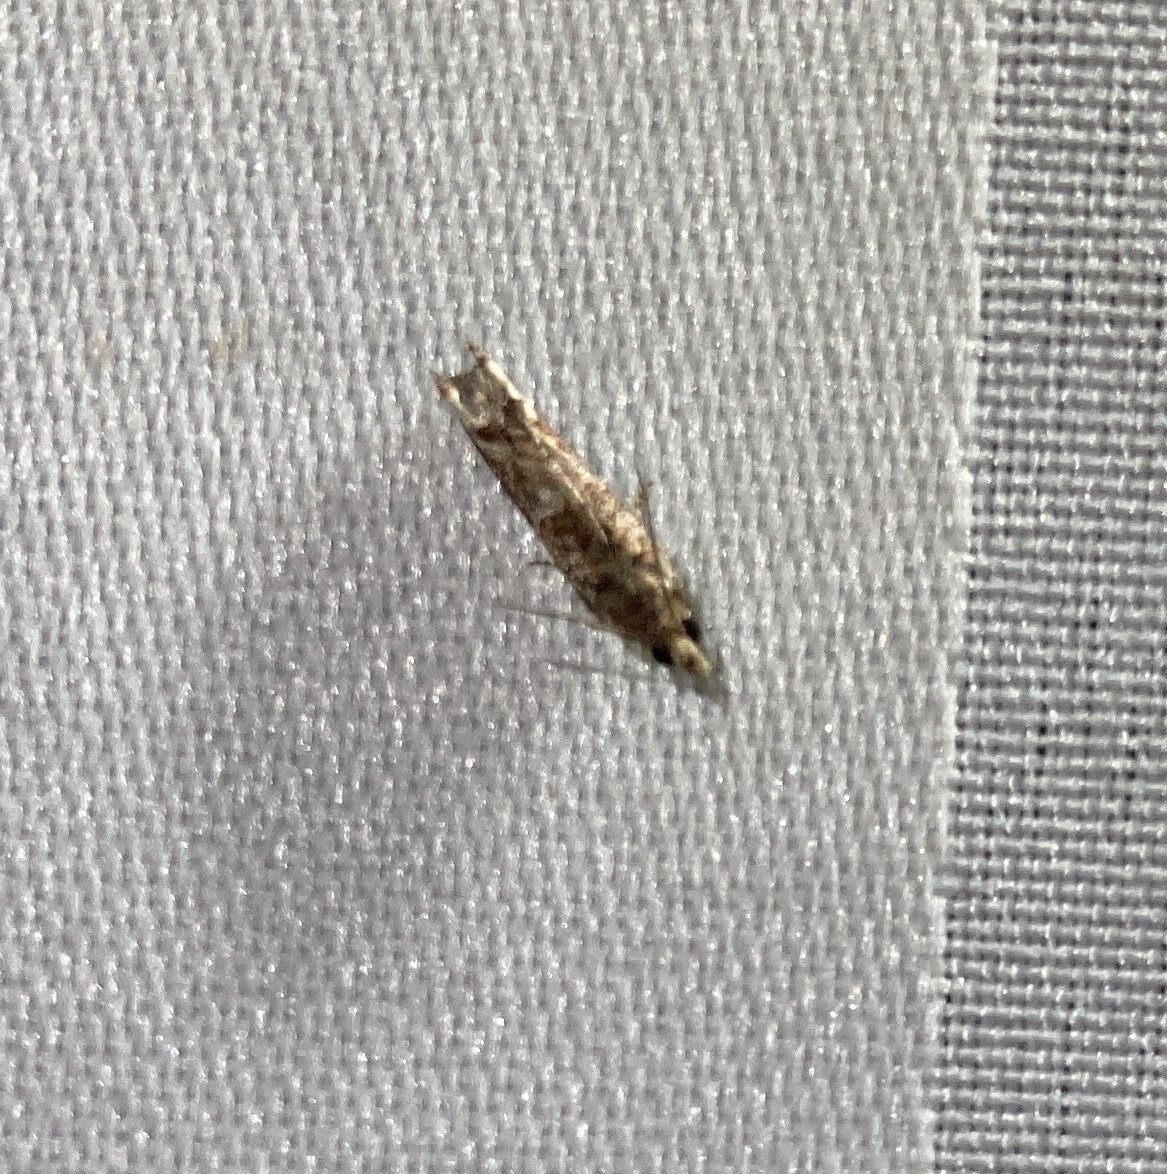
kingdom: Animalia
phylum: Arthropoda
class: Insecta
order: Lepidoptera
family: Tortricidae
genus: Crocidosema
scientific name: Crocidosema plebejana
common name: Southern bell
